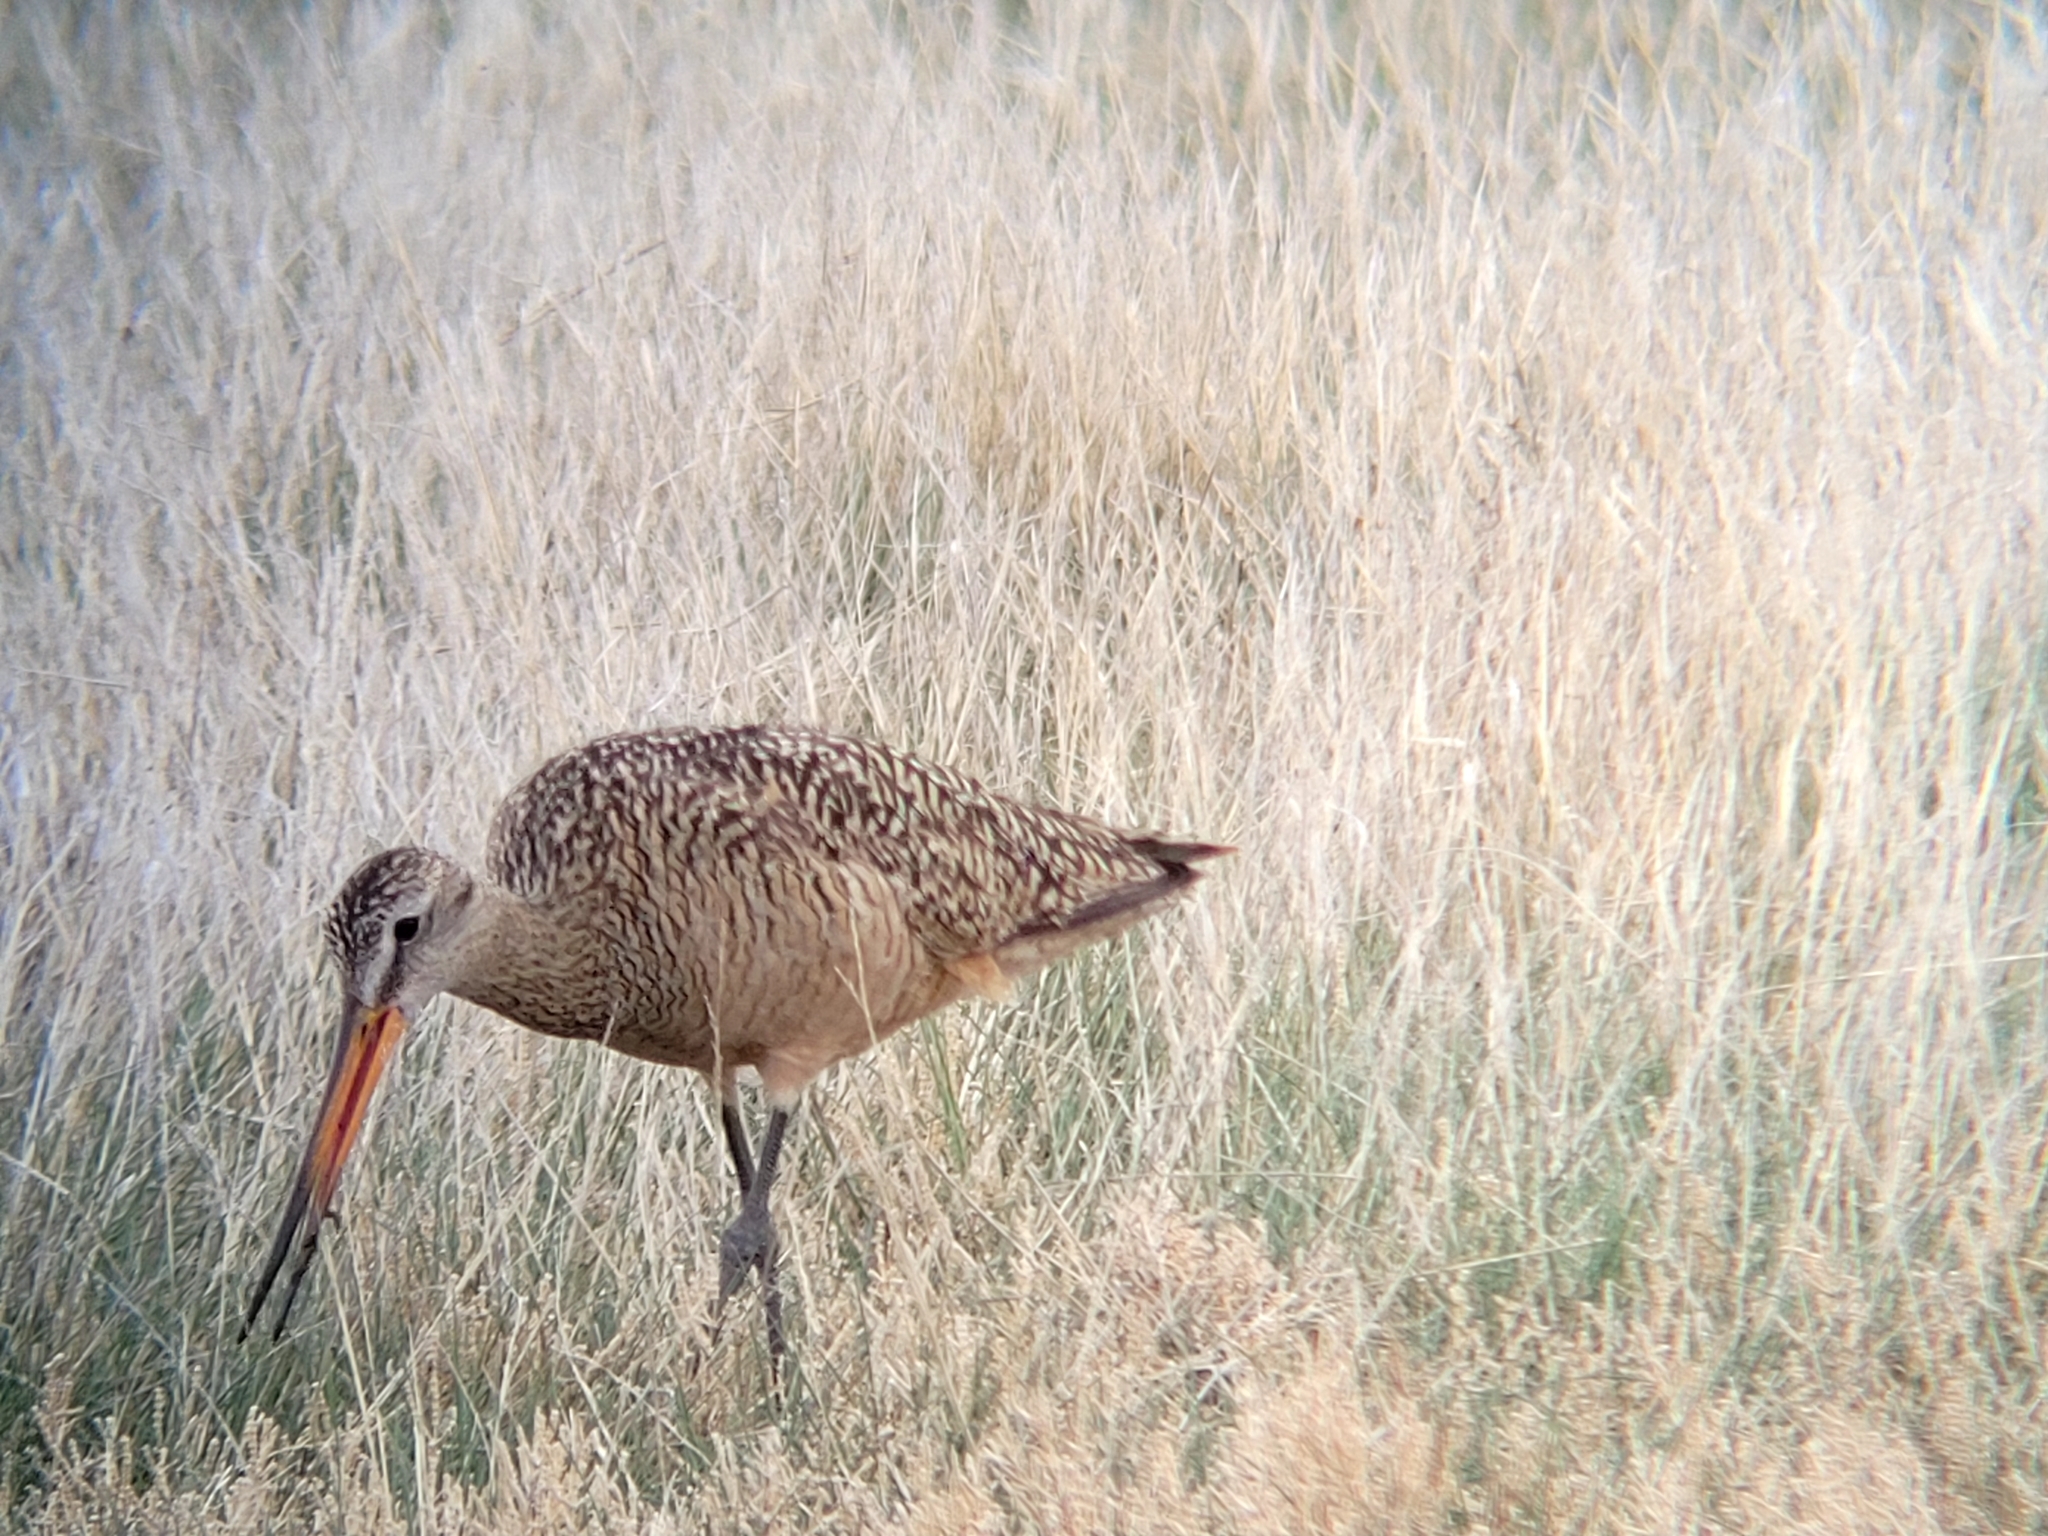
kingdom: Animalia
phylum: Chordata
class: Aves
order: Charadriiformes
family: Scolopacidae
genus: Limosa
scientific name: Limosa fedoa
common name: Marbled godwit
